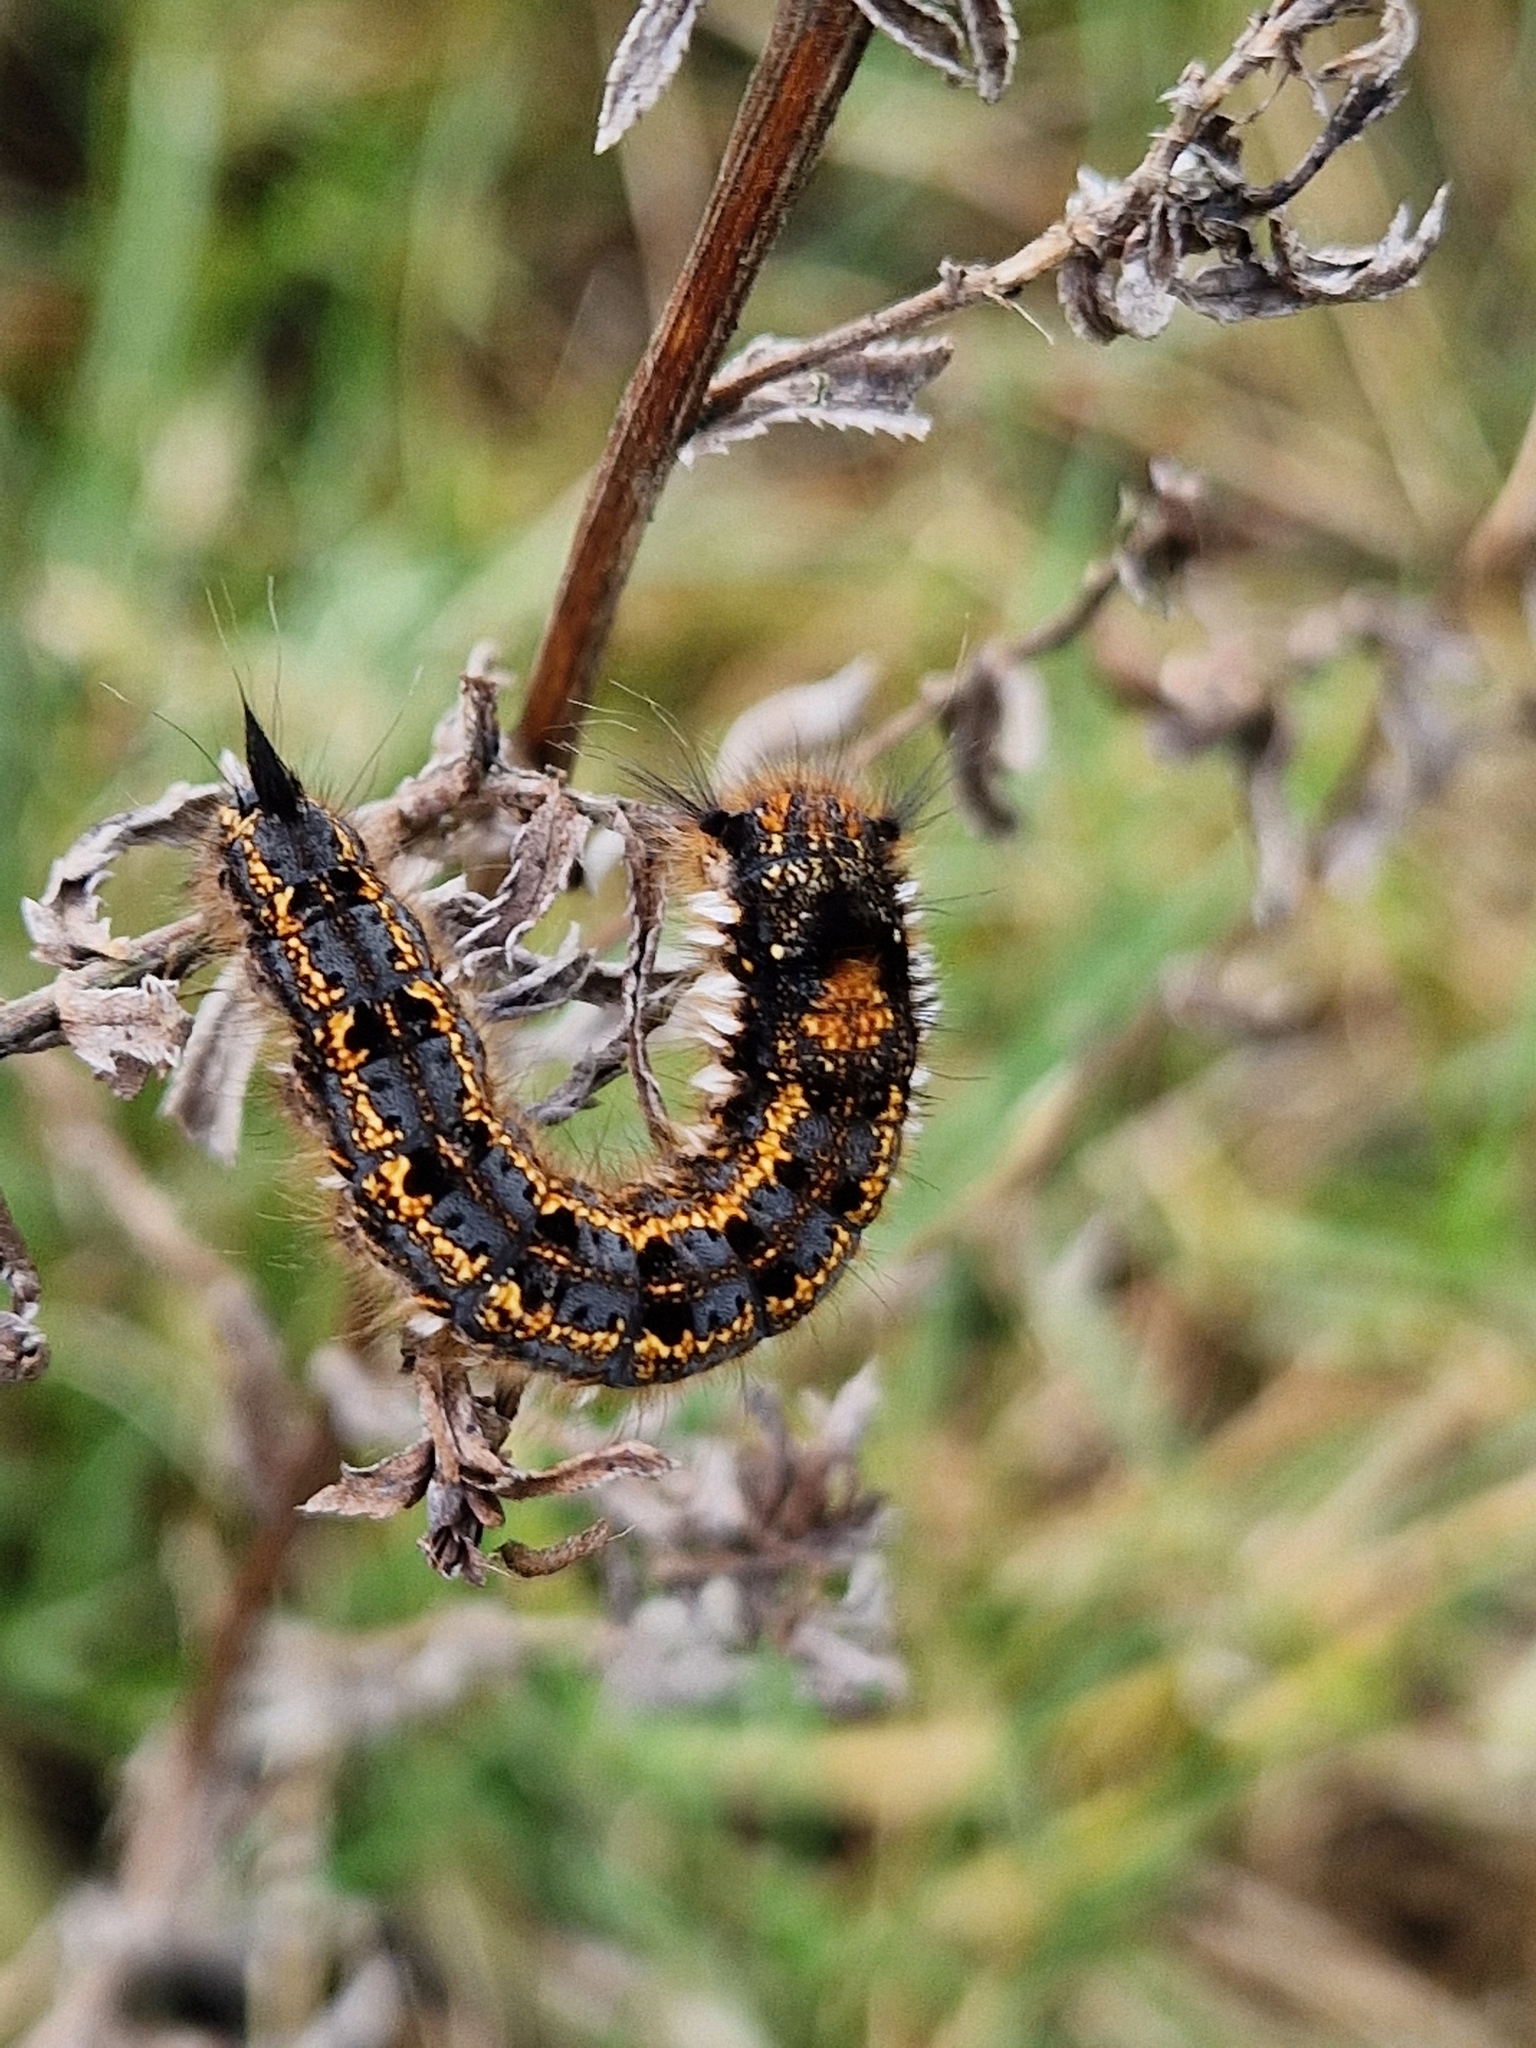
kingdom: Animalia
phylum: Arthropoda
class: Insecta
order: Lepidoptera
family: Lasiocampidae
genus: Euthrix
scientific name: Euthrix potatoria
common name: Drinker
